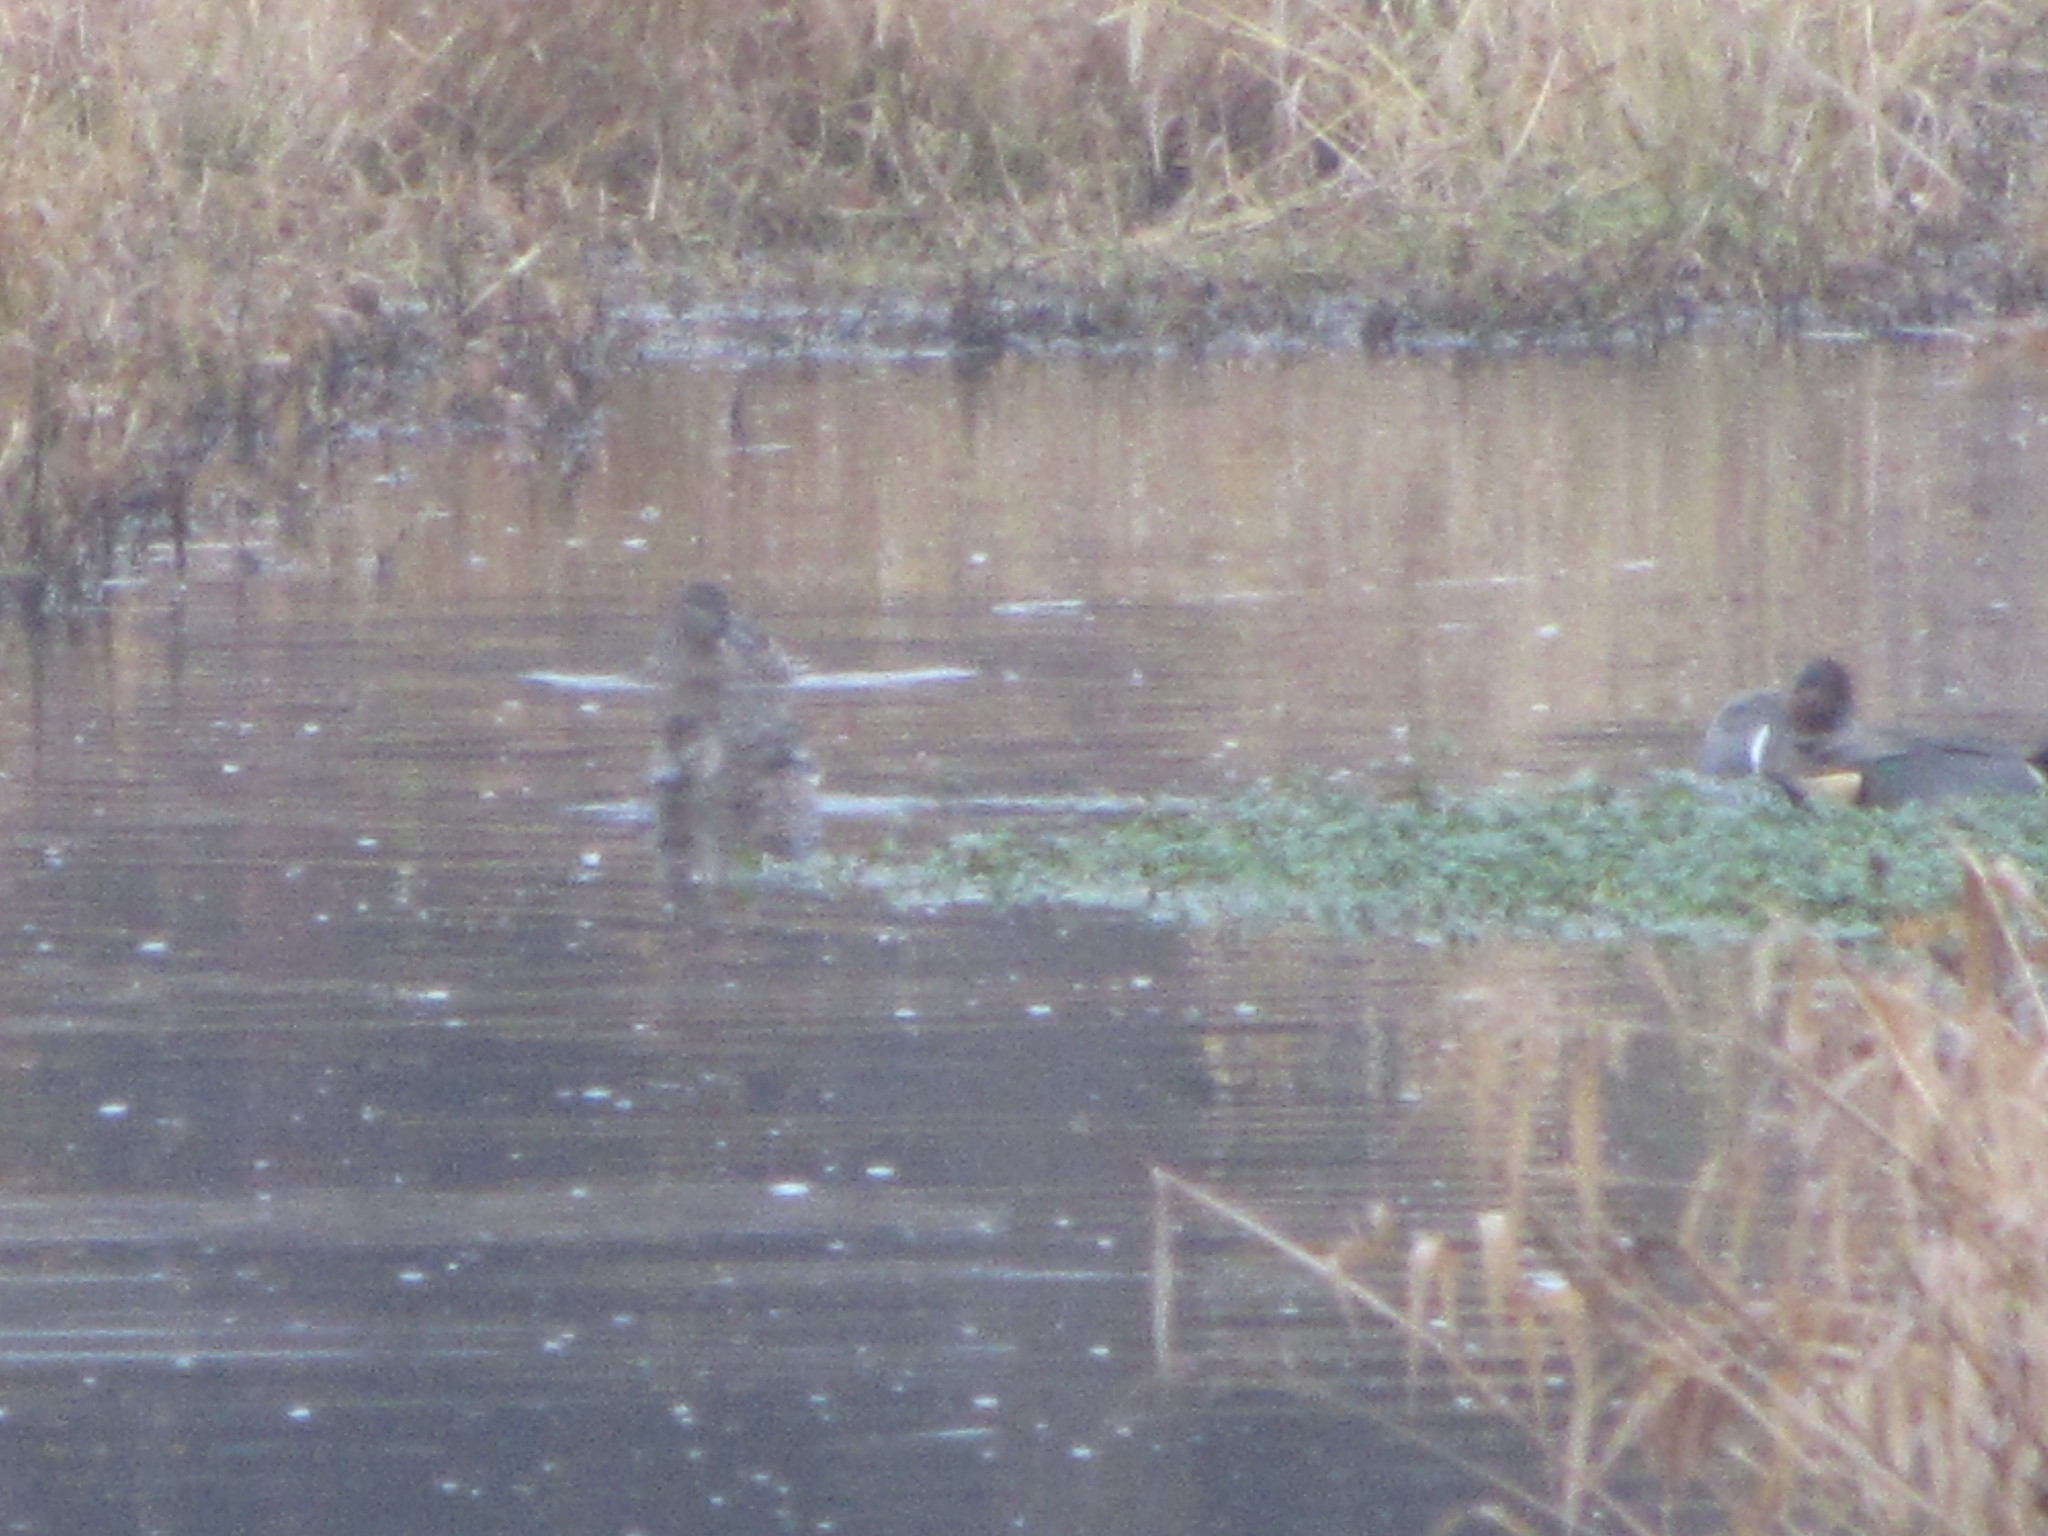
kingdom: Animalia
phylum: Chordata
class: Aves
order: Anseriformes
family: Anatidae
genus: Anas
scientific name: Anas crecca
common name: Eurasian teal
